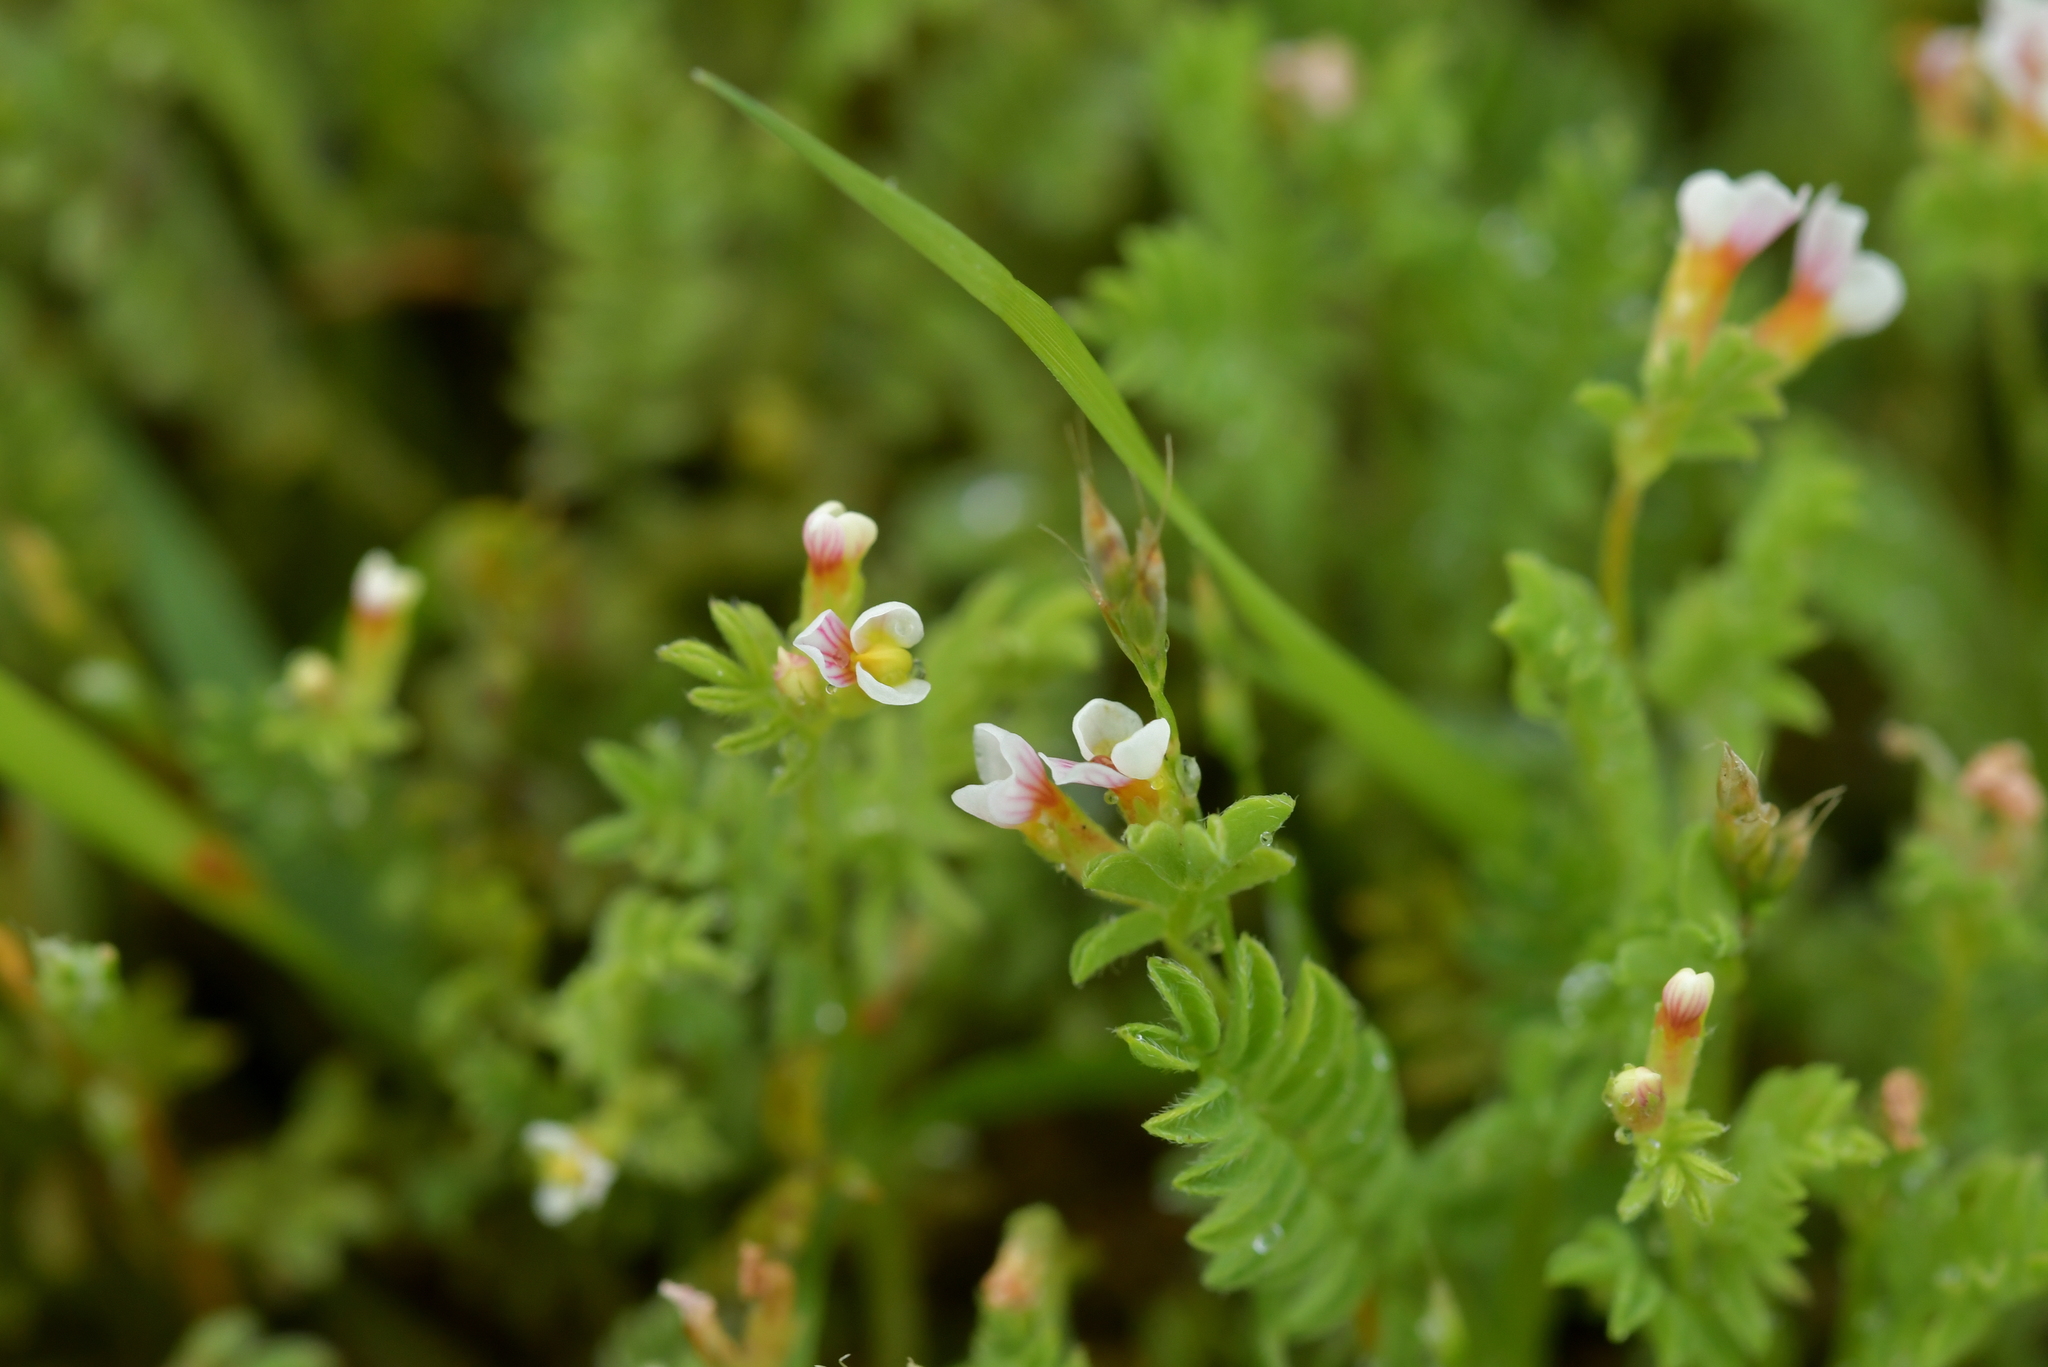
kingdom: Plantae
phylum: Tracheophyta
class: Magnoliopsida
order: Fabales
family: Fabaceae
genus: Ornithopus
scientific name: Ornithopus perpusillus
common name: Bird's-foot
